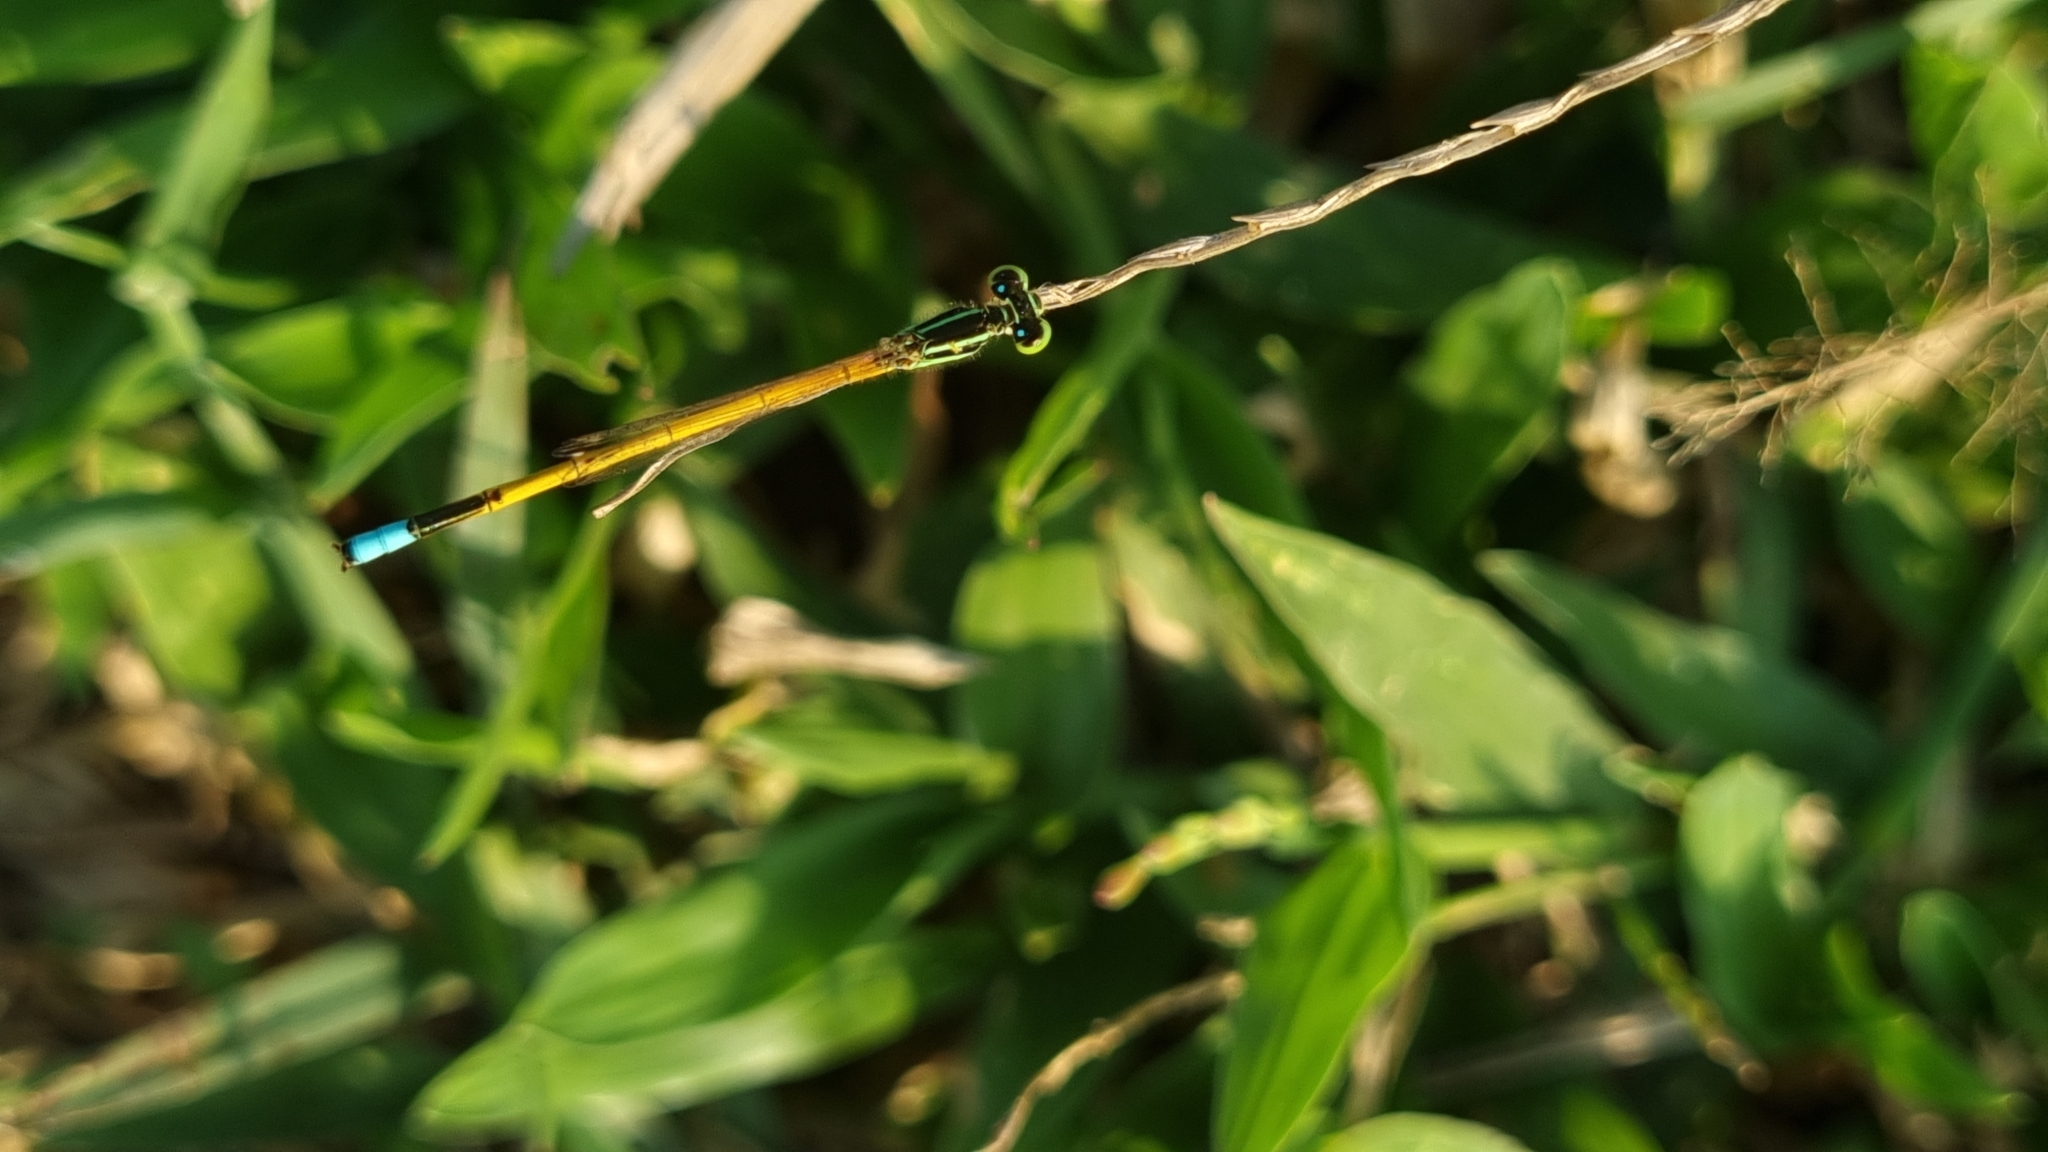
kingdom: Animalia
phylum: Arthropoda
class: Insecta
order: Odonata
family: Coenagrionidae
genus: Ischnura
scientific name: Ischnura rubilio
